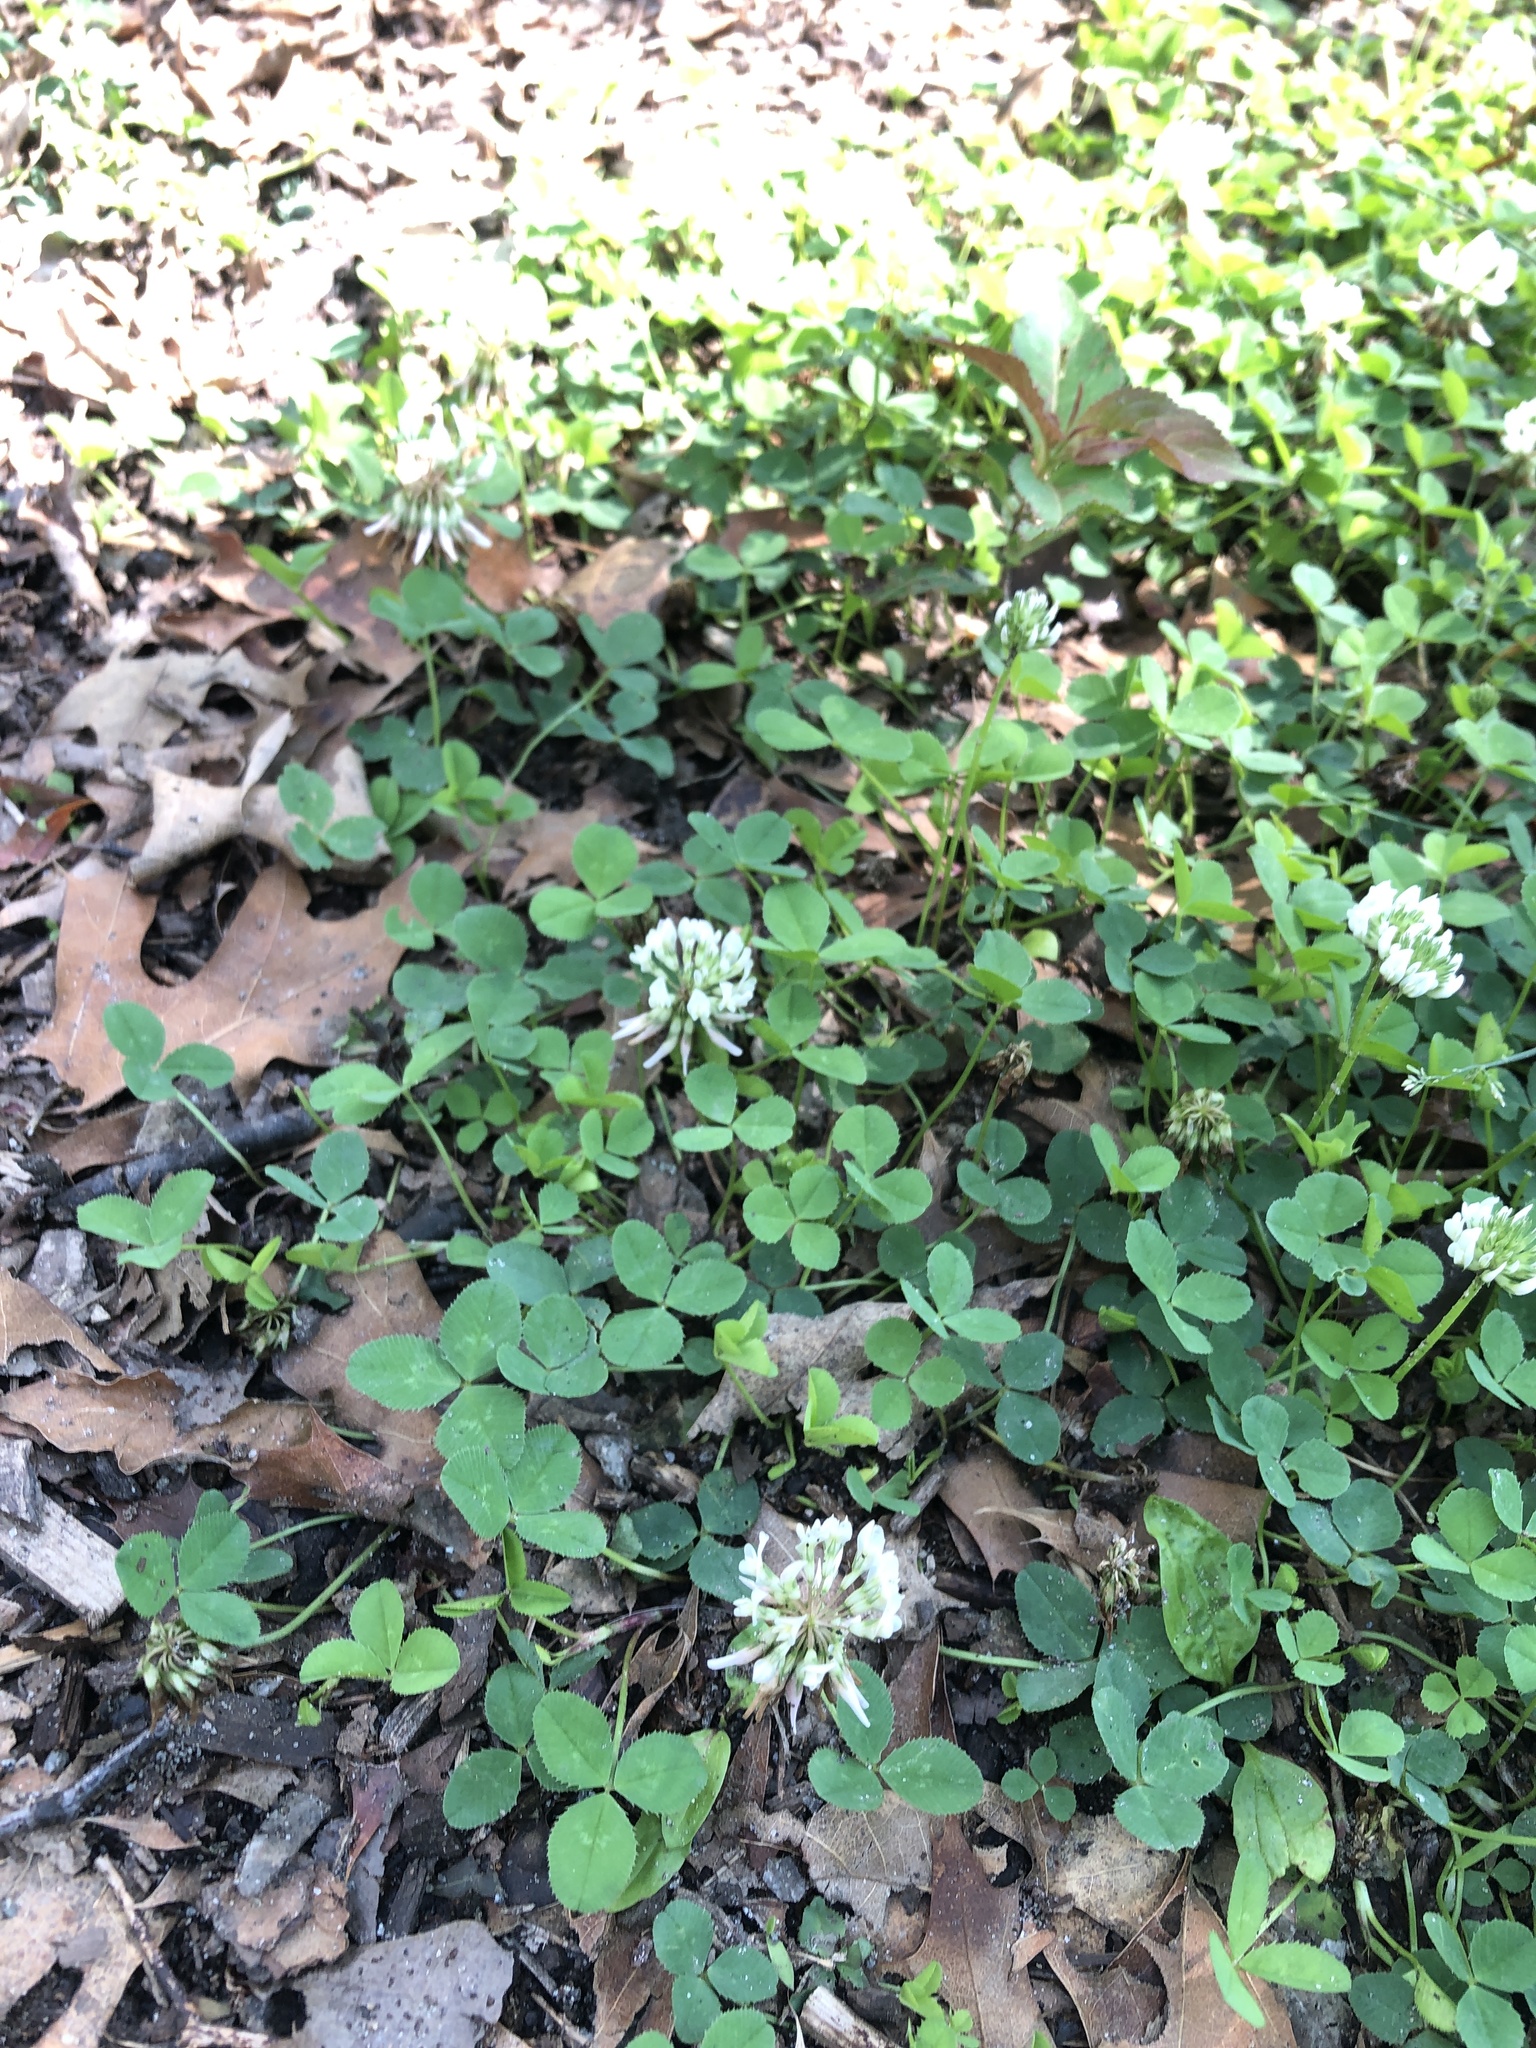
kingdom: Plantae
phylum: Tracheophyta
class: Magnoliopsida
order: Fabales
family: Fabaceae
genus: Trifolium
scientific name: Trifolium repens
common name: White clover
